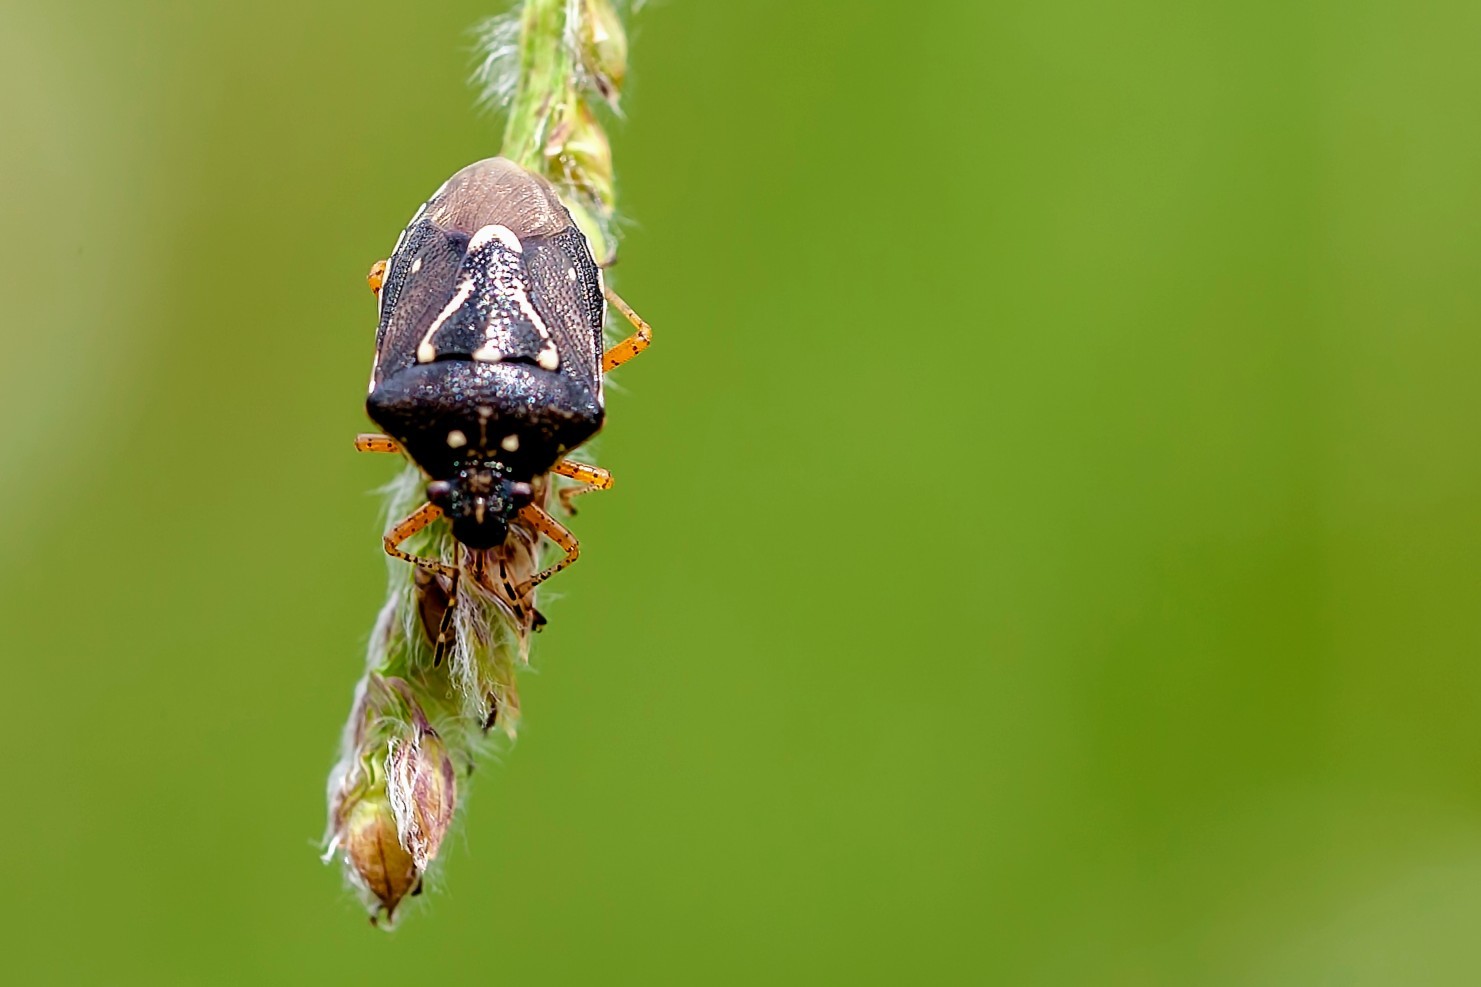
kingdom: Animalia
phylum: Arthropoda
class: Insecta
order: Hemiptera
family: Pentatomidae
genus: Mormidea
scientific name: Mormidea pama
